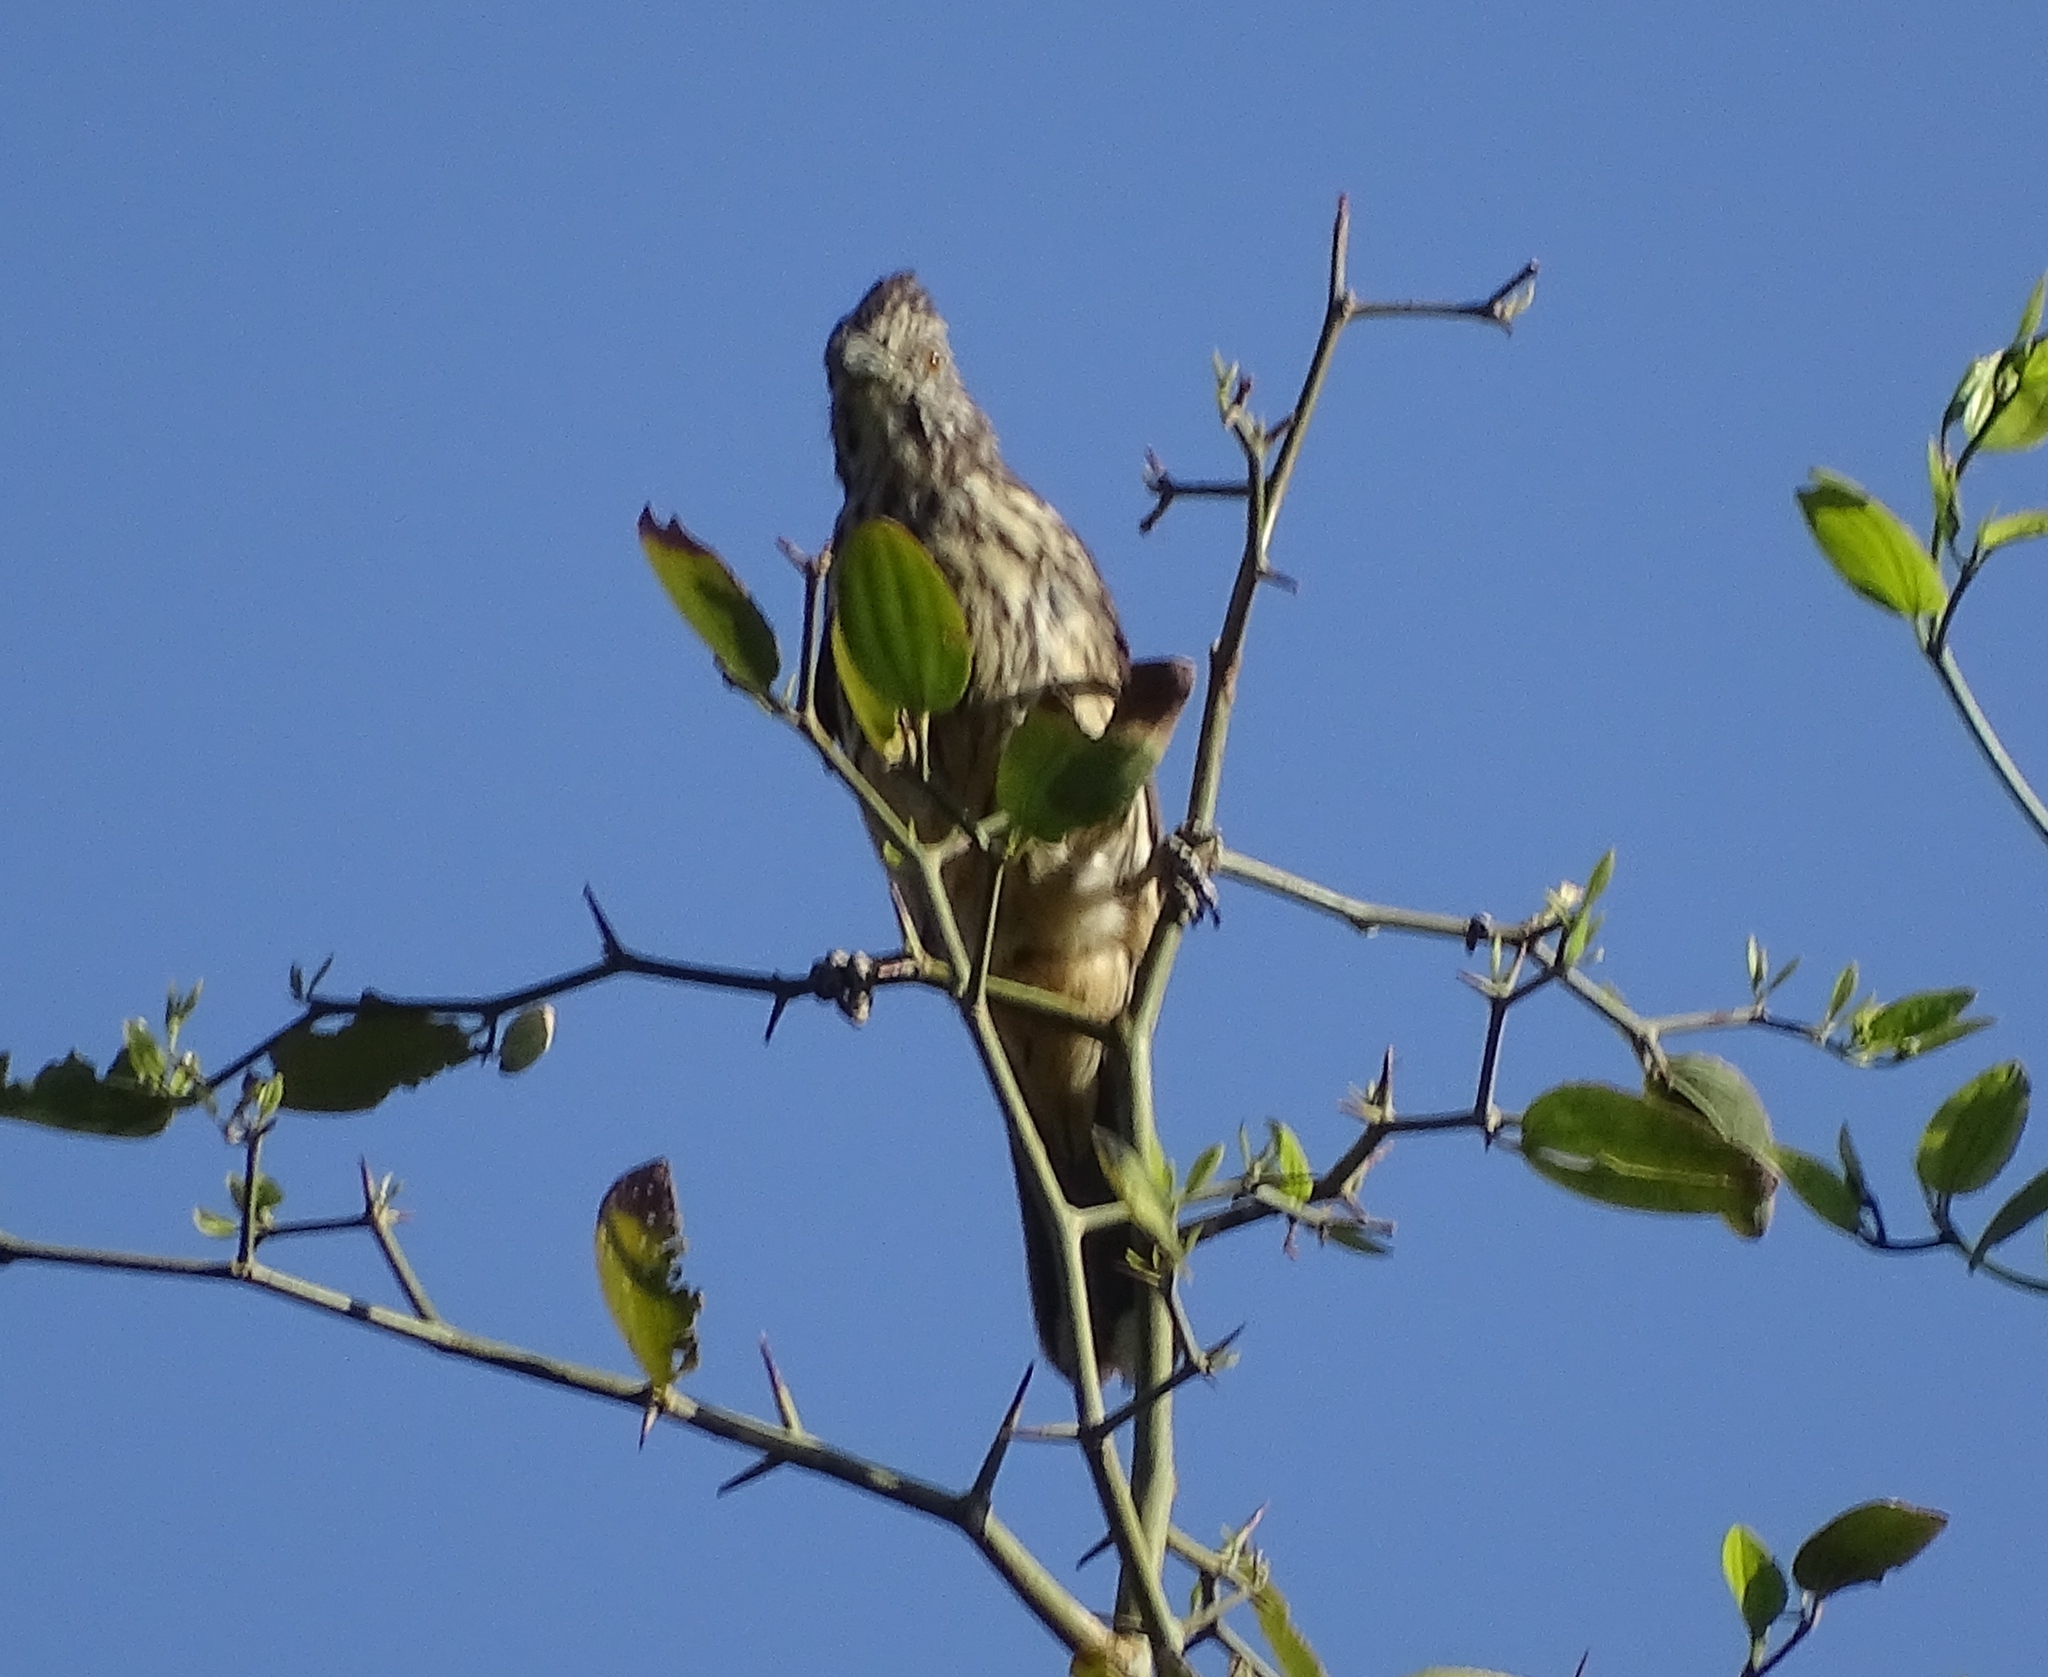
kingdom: Animalia
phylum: Chordata
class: Aves
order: Passeriformes
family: Cotingidae
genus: Phytotoma
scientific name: Phytotoma rutila
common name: White-tipped plantcutter
